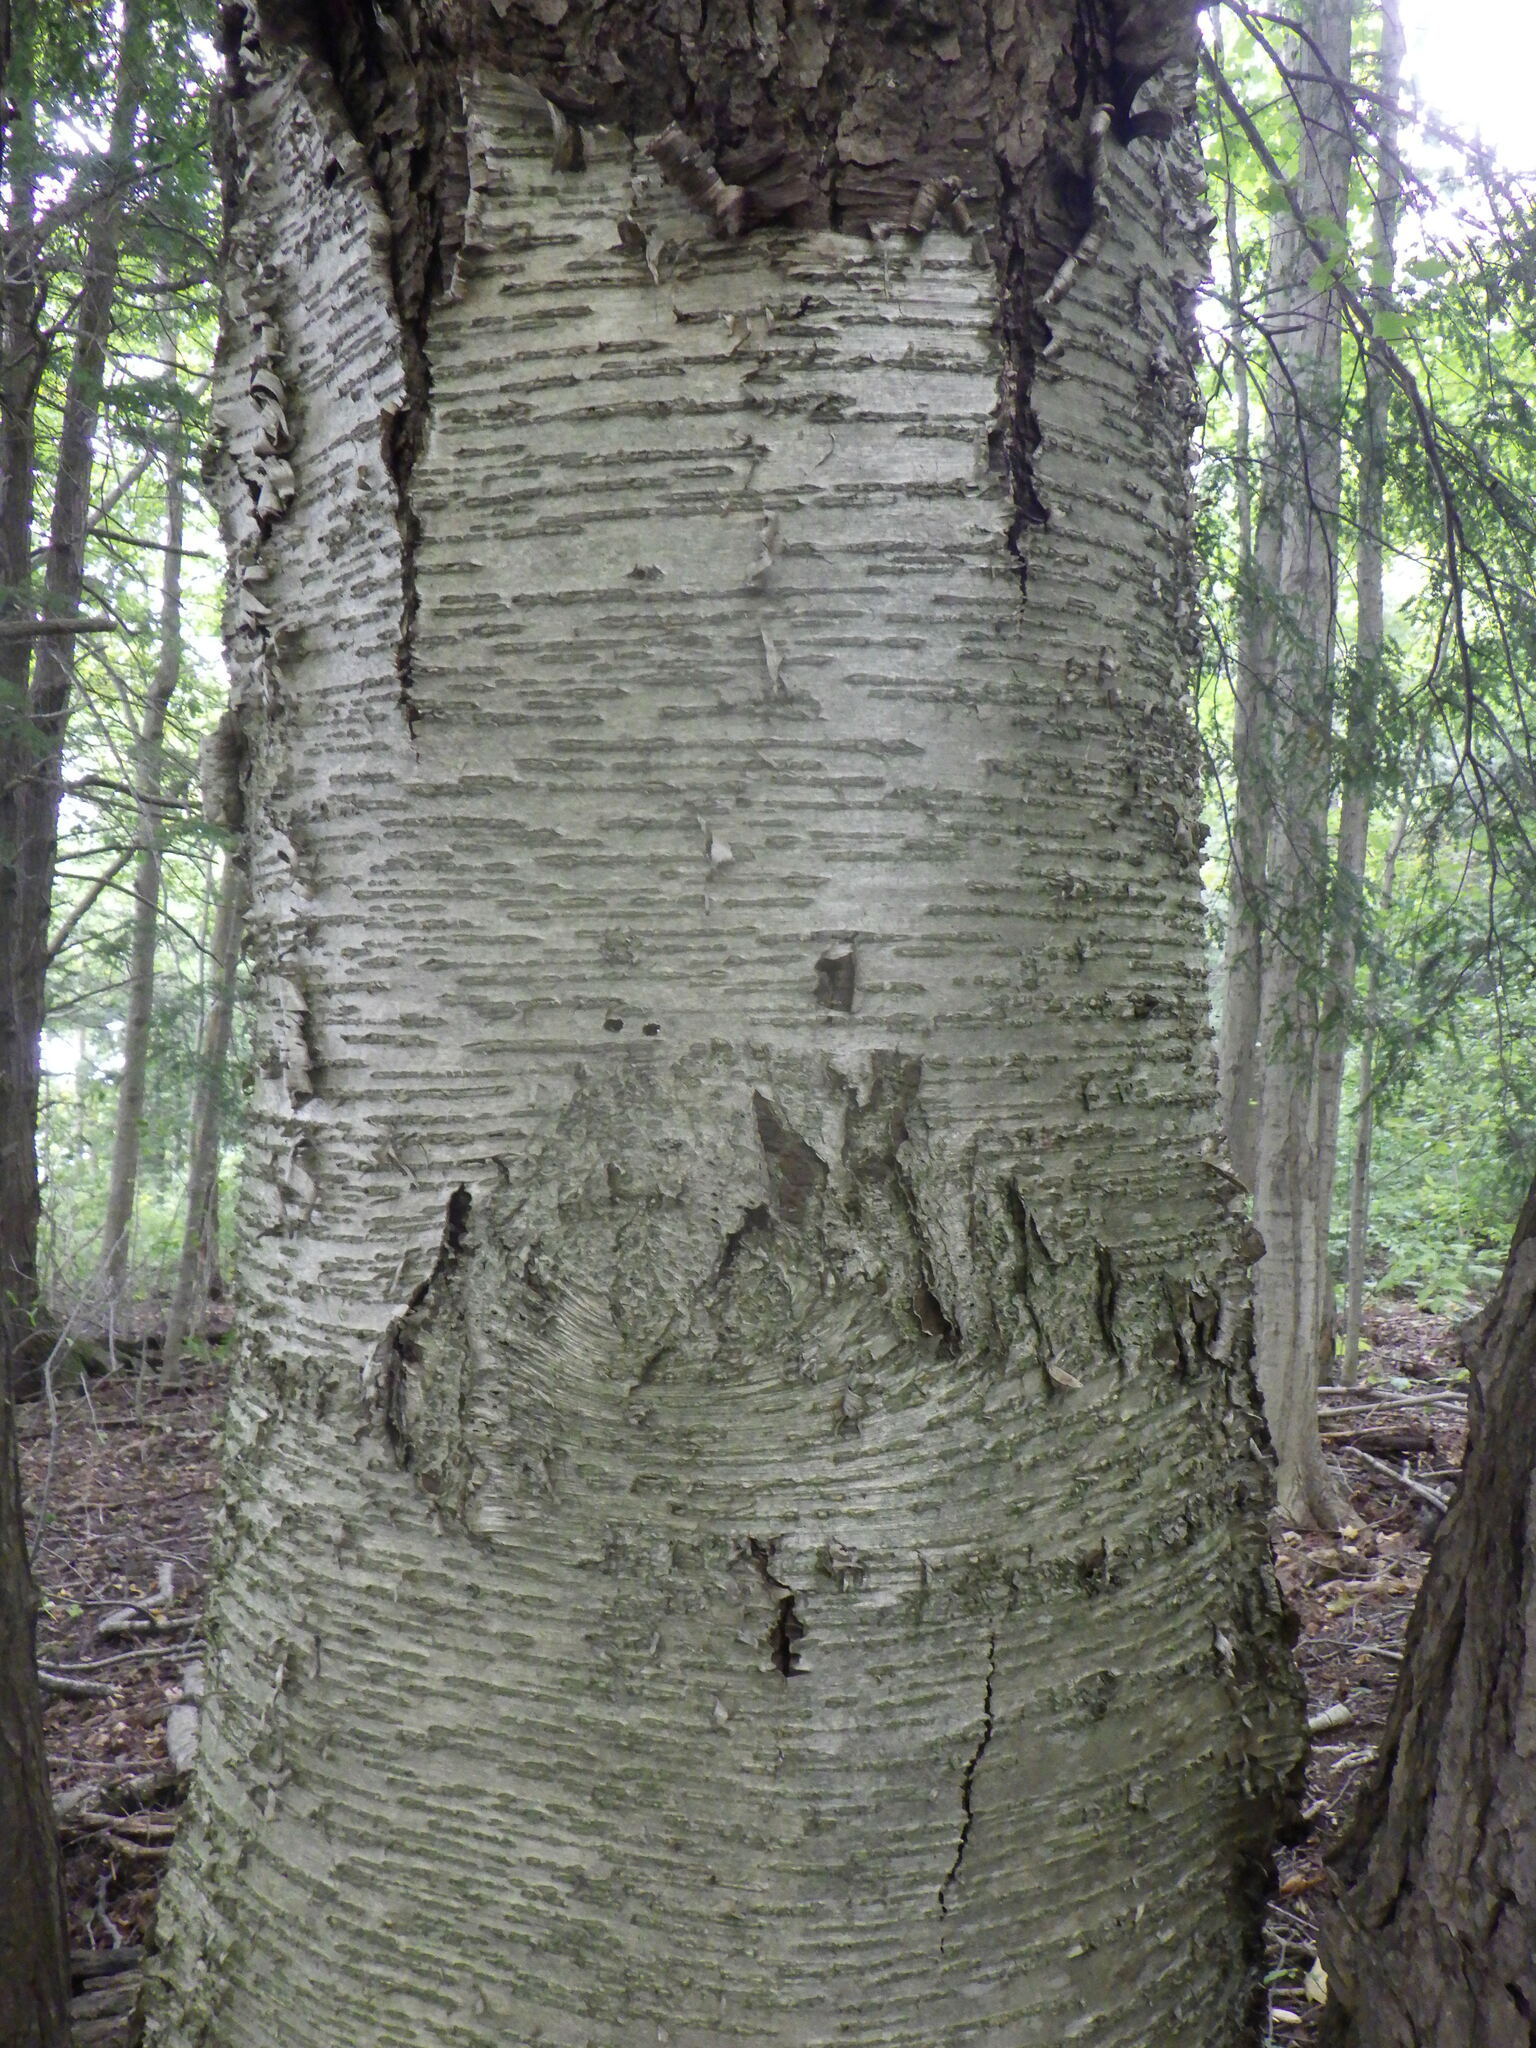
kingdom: Plantae
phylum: Tracheophyta
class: Magnoliopsida
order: Fagales
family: Betulaceae
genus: Betula
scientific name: Betula alleghaniensis
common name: Yellow birch
